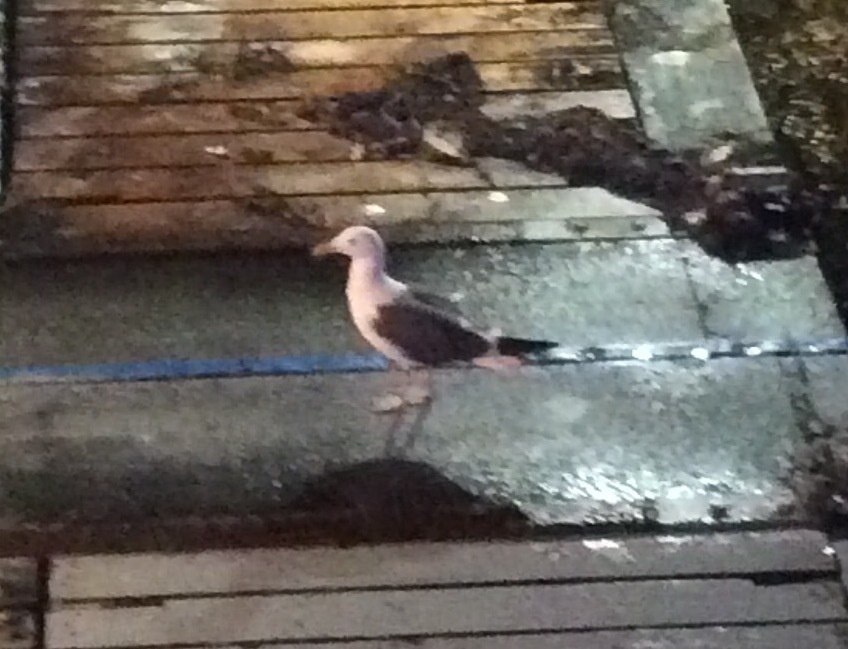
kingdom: Animalia
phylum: Chordata
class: Aves
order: Charadriiformes
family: Laridae
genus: Larus
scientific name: Larus occidentalis
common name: Western gull
